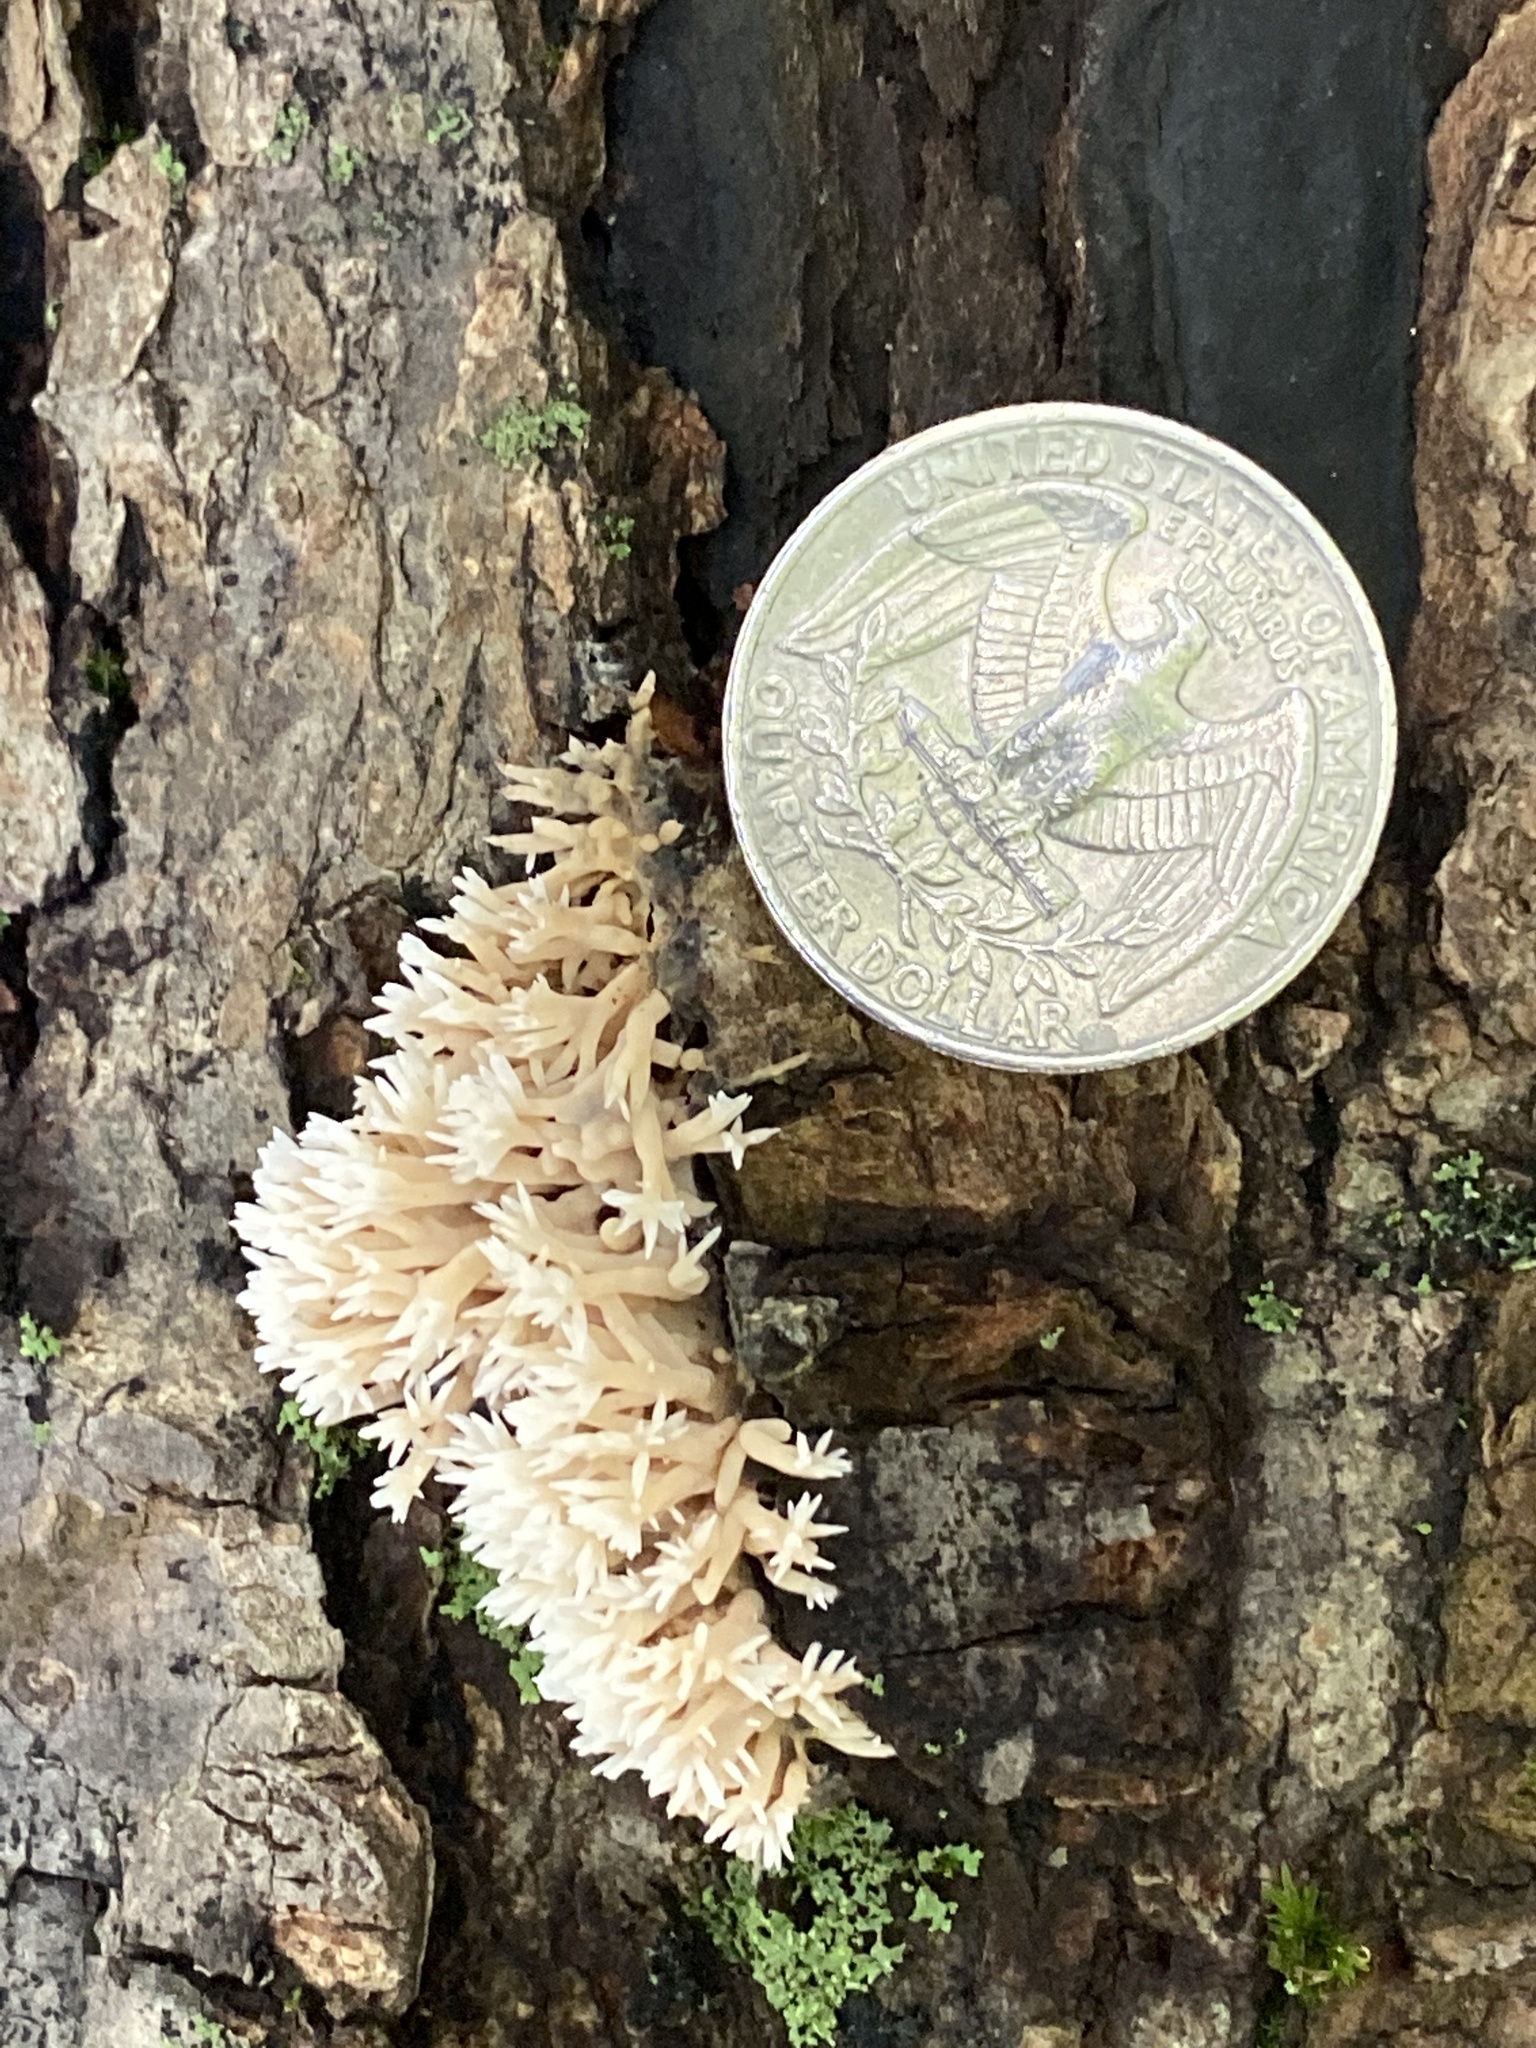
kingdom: Fungi
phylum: Basidiomycota
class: Agaricomycetes
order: Agaricales
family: Radulomycetaceae
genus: Radulomyces
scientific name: Radulomyces copelandii
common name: Asian beauty
